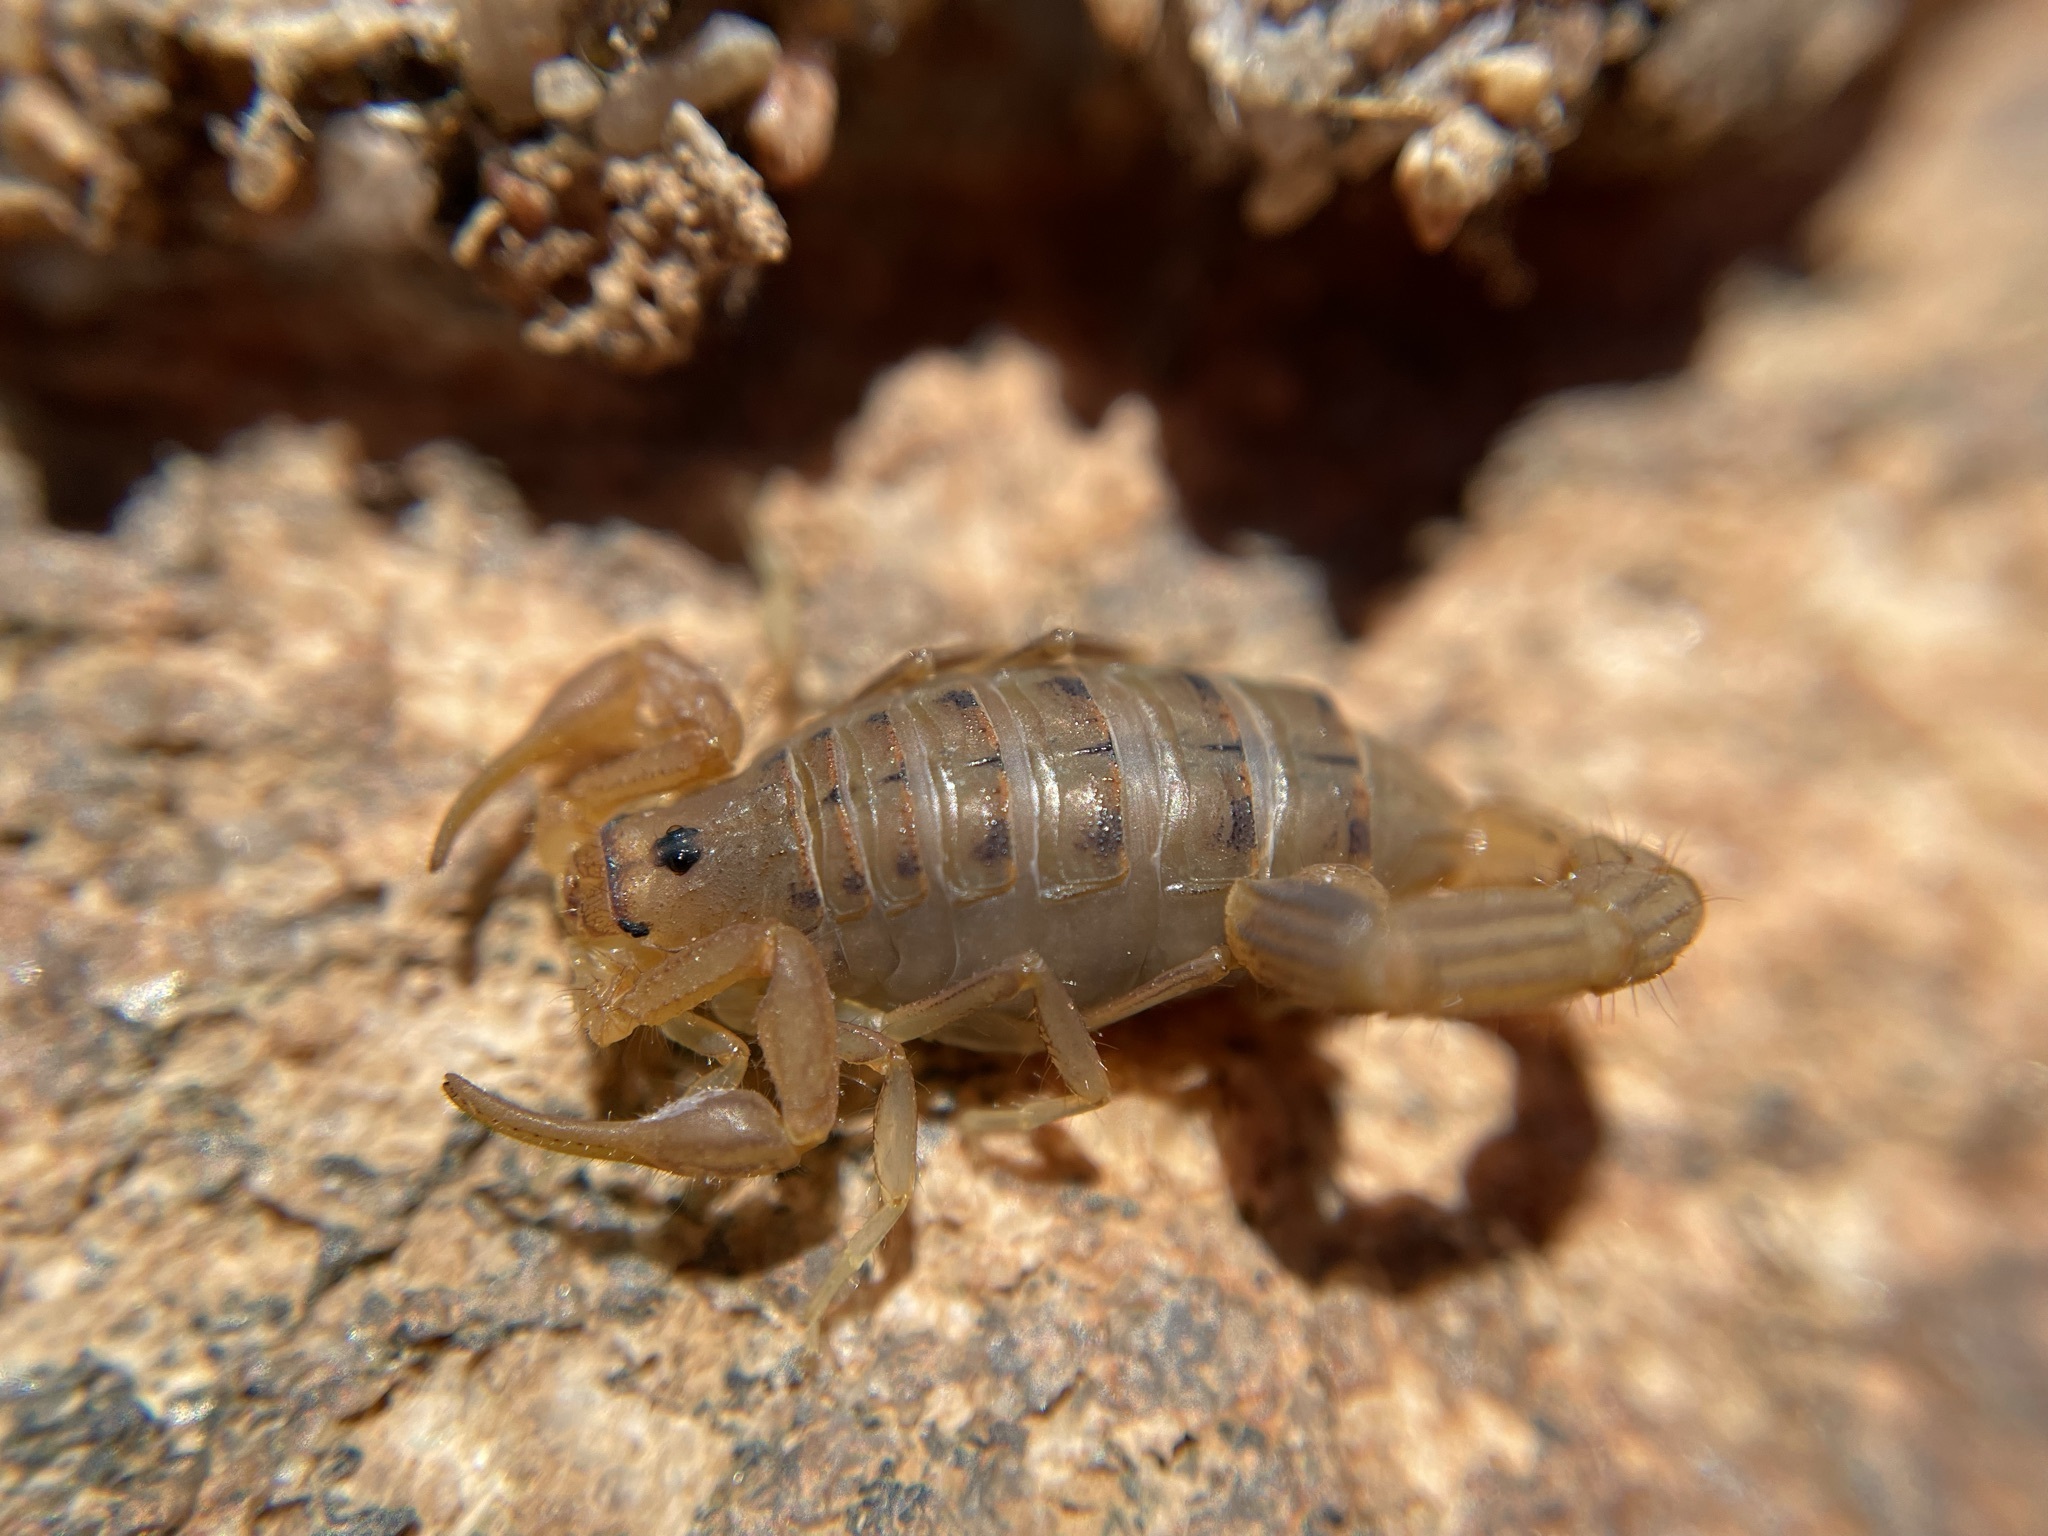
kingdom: Animalia
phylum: Arthropoda
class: Arachnida
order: Scorpiones
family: Buthidae
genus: Uroplectes
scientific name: Uroplectes carinatus
